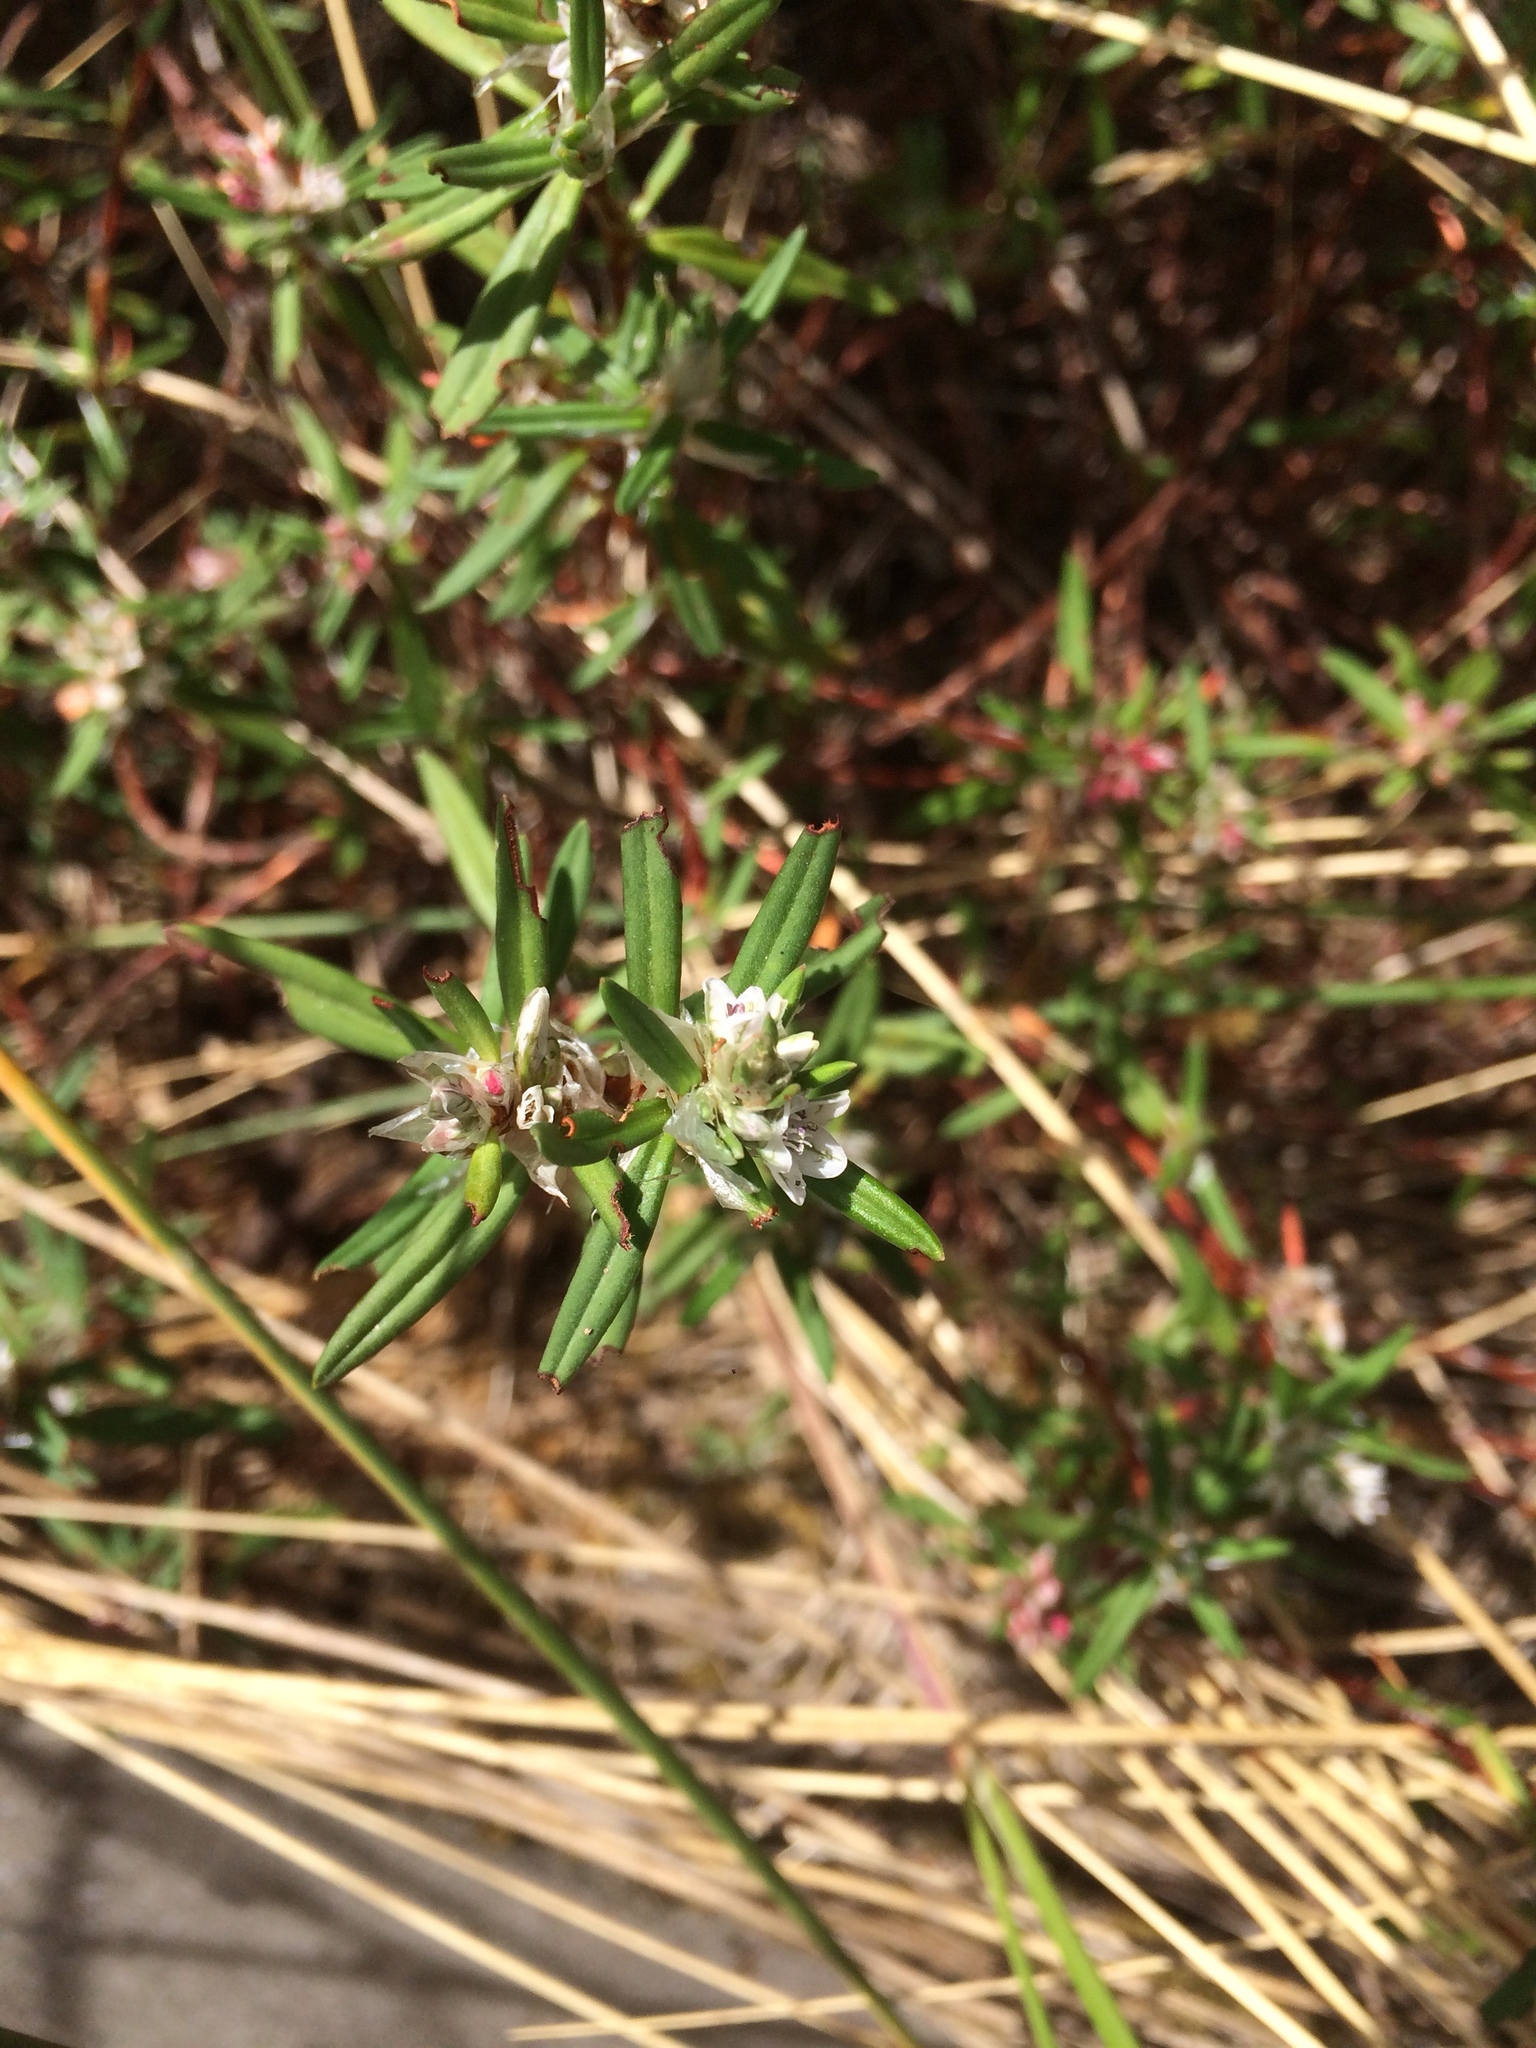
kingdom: Plantae
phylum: Tracheophyta
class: Magnoliopsida
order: Caryophyllales
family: Polygonaceae
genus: Polygonum
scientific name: Polygonum paronychia
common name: Dune knotweed
